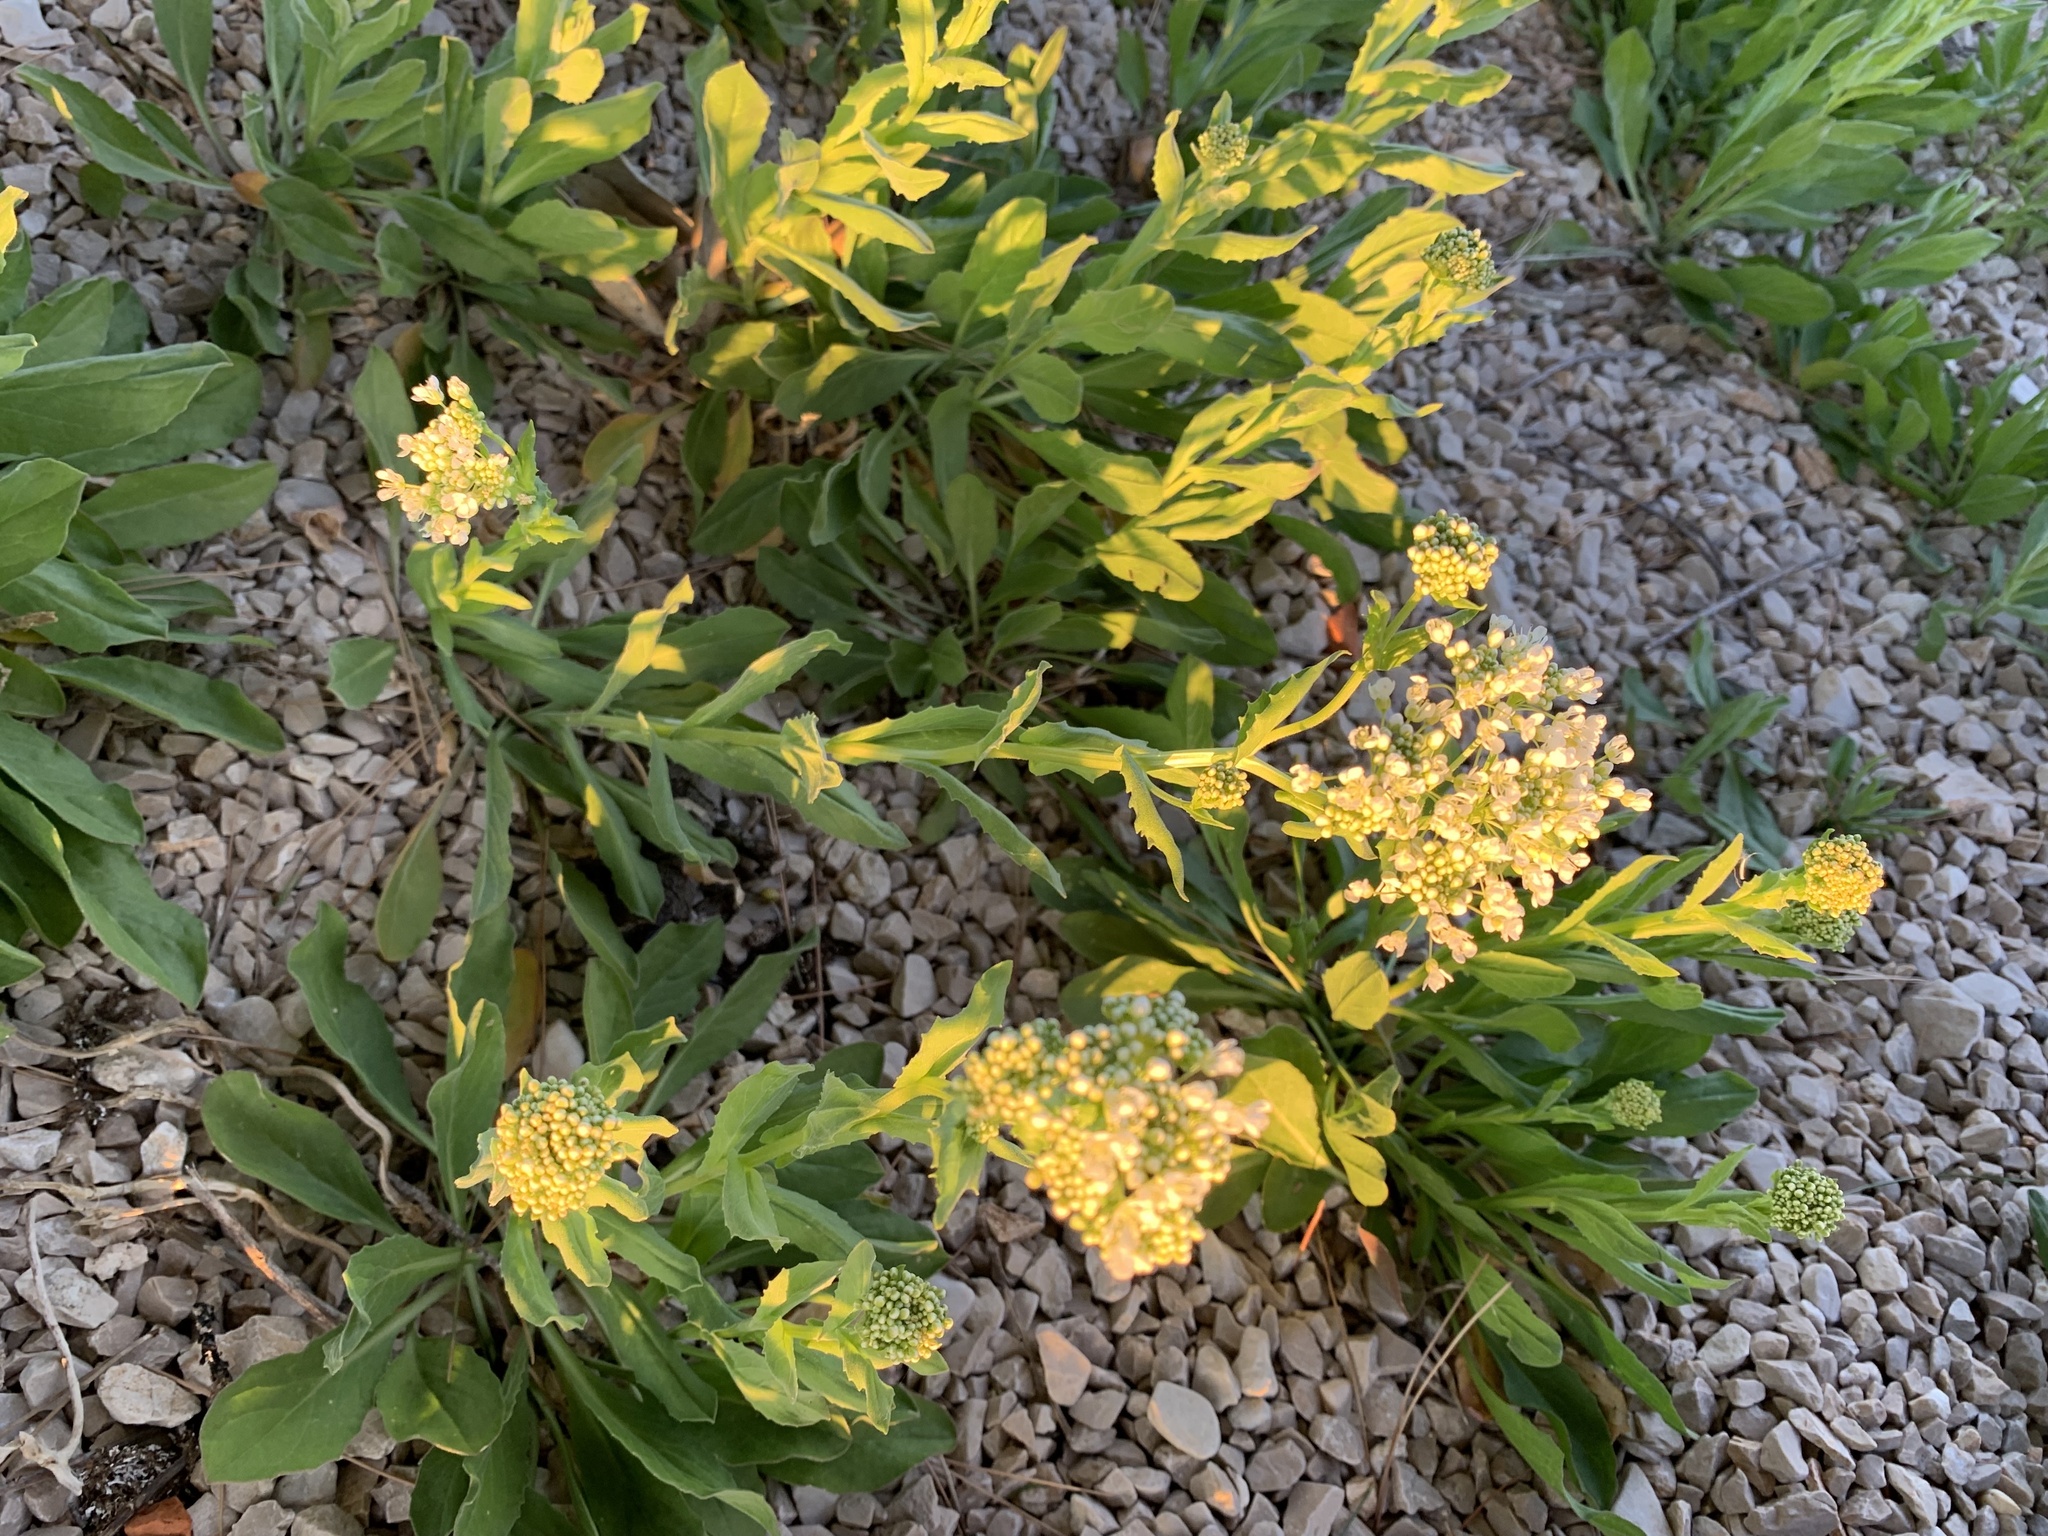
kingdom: Plantae
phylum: Tracheophyta
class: Magnoliopsida
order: Brassicales
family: Brassicaceae
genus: Lepidium
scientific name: Lepidium draba
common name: Hoary cress
